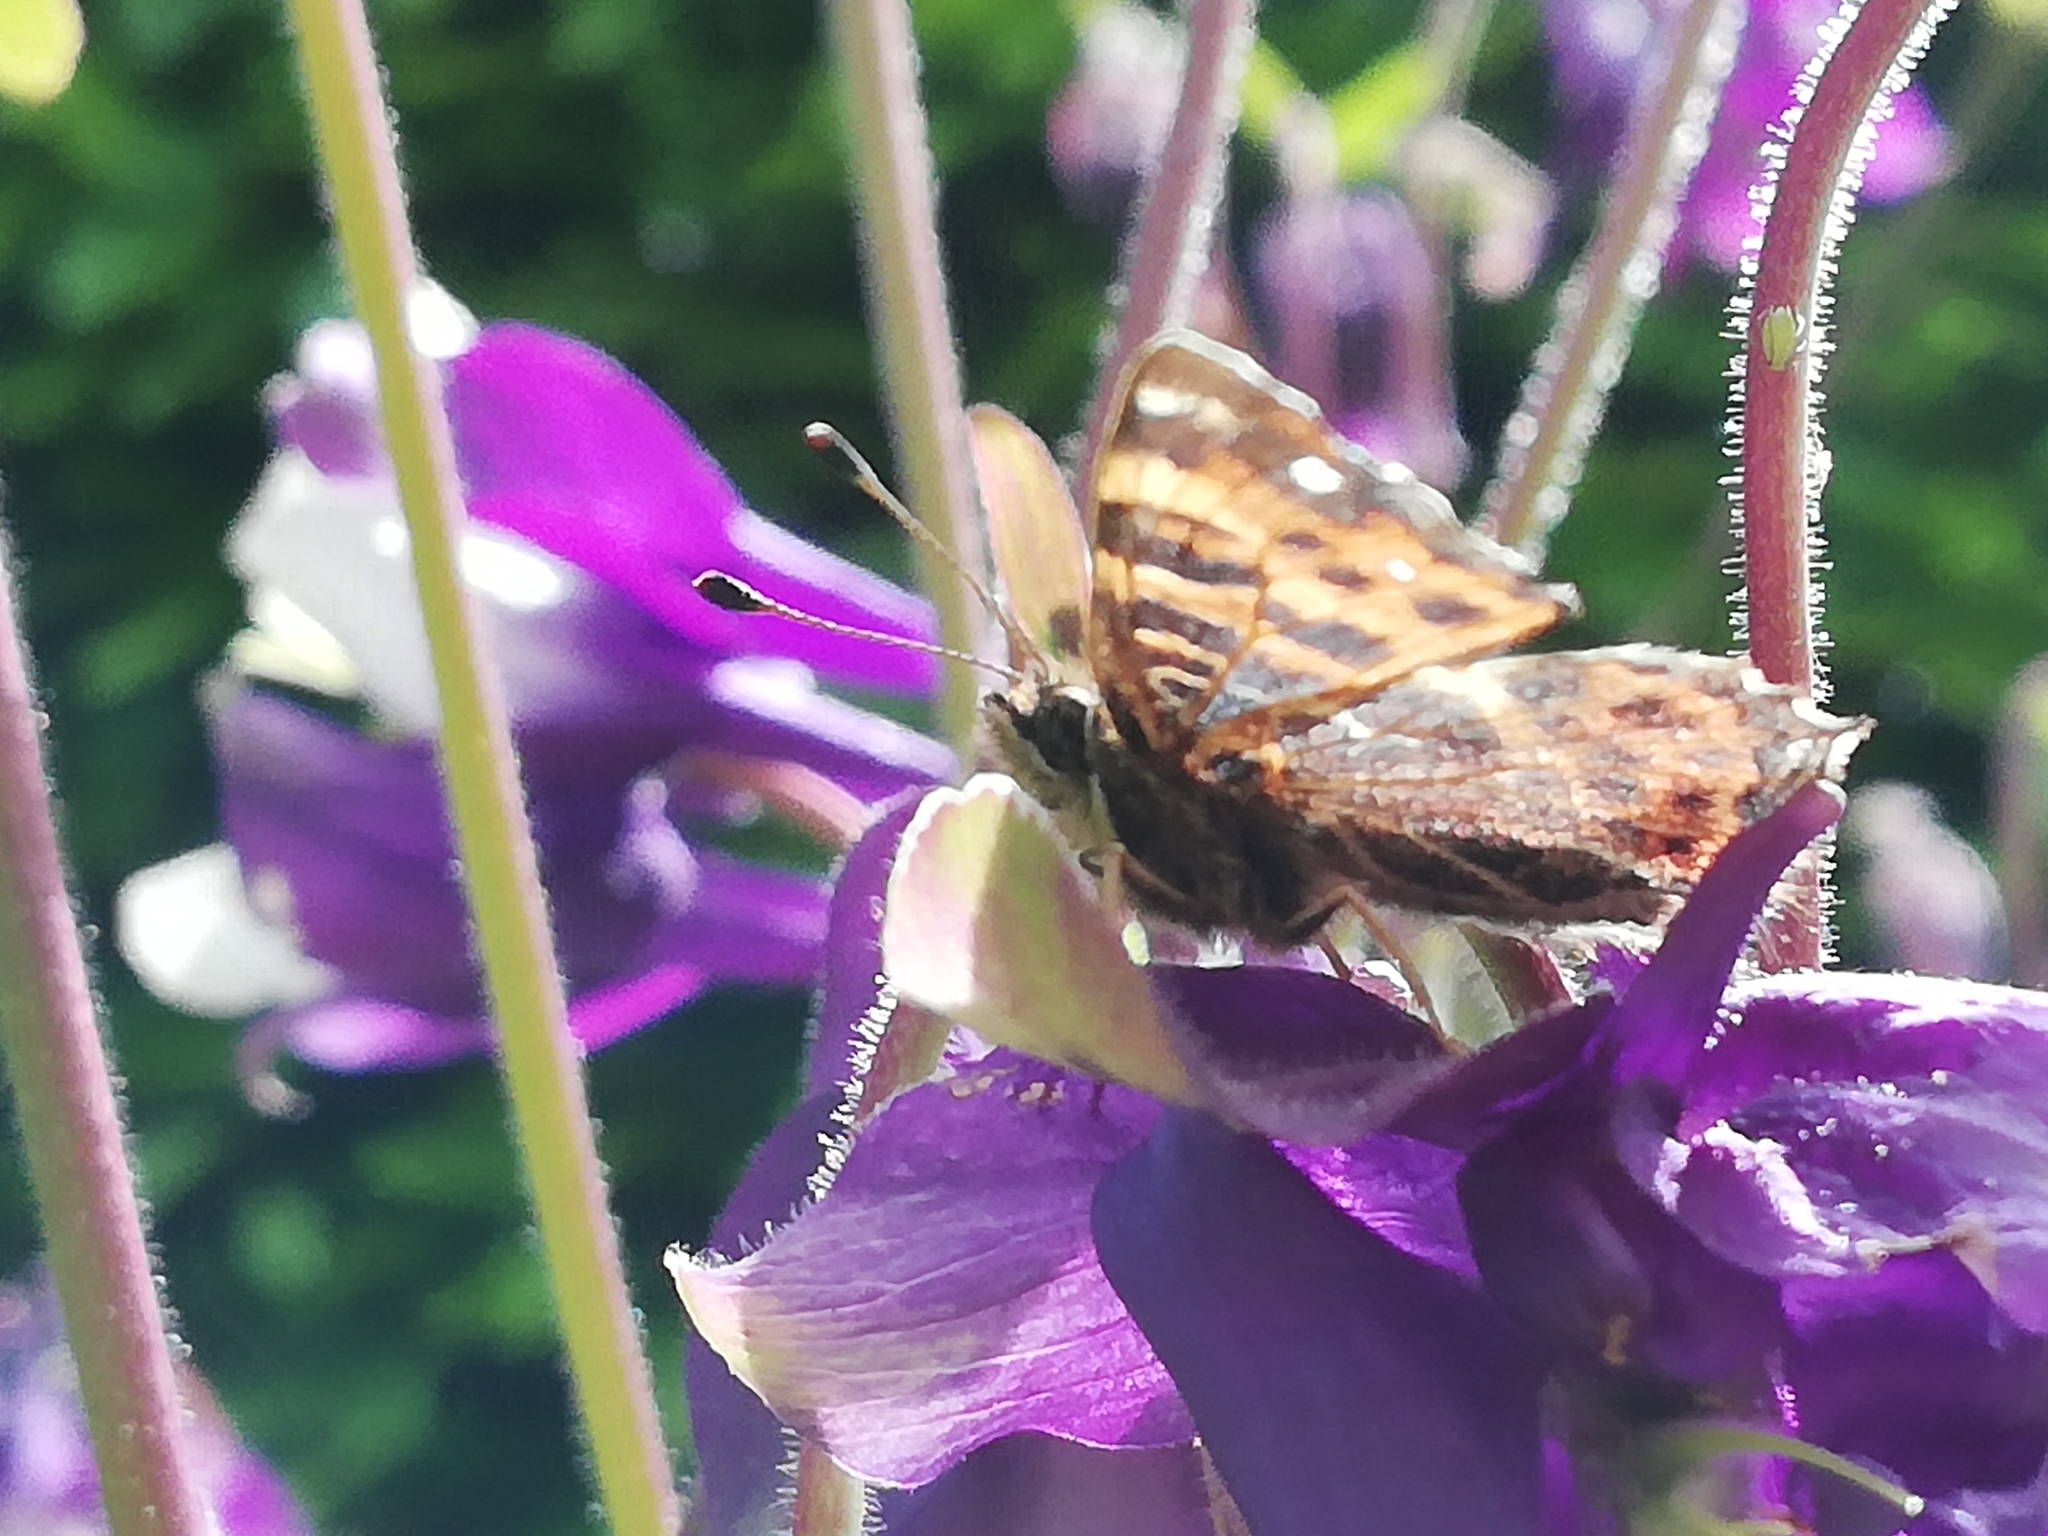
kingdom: Animalia
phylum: Arthropoda
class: Insecta
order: Lepidoptera
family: Nymphalidae
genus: Araschnia
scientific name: Araschnia levana
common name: Map butterfly
